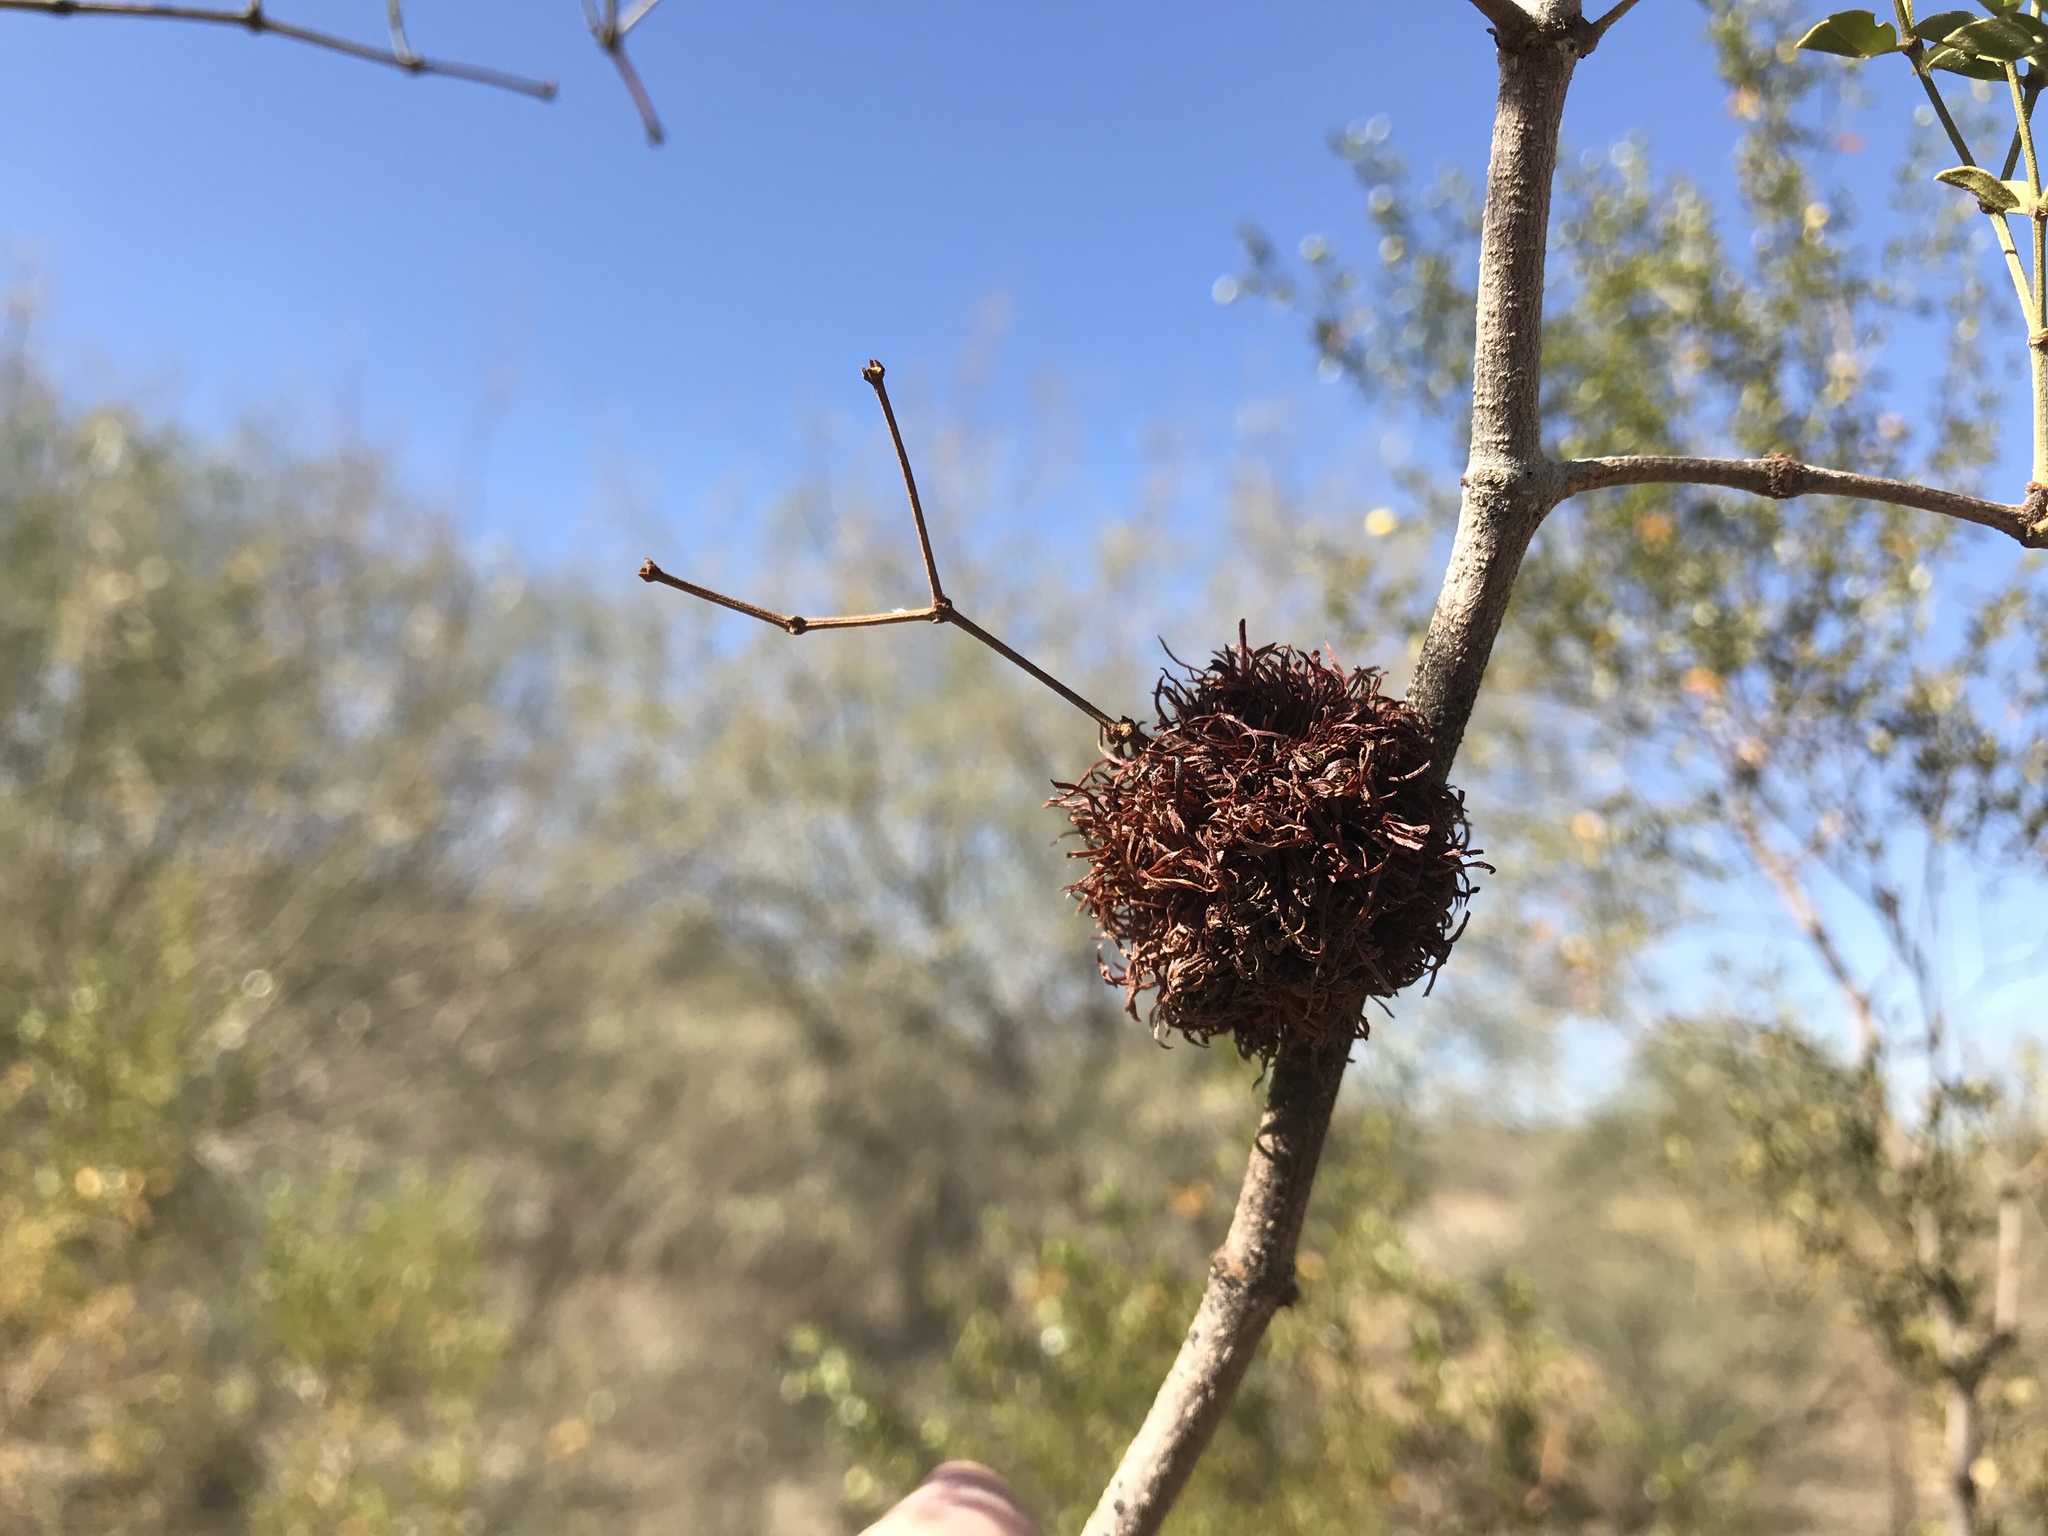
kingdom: Animalia
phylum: Arthropoda
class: Insecta
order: Diptera
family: Cecidomyiidae
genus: Asphondylia
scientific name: Asphondylia auripila
